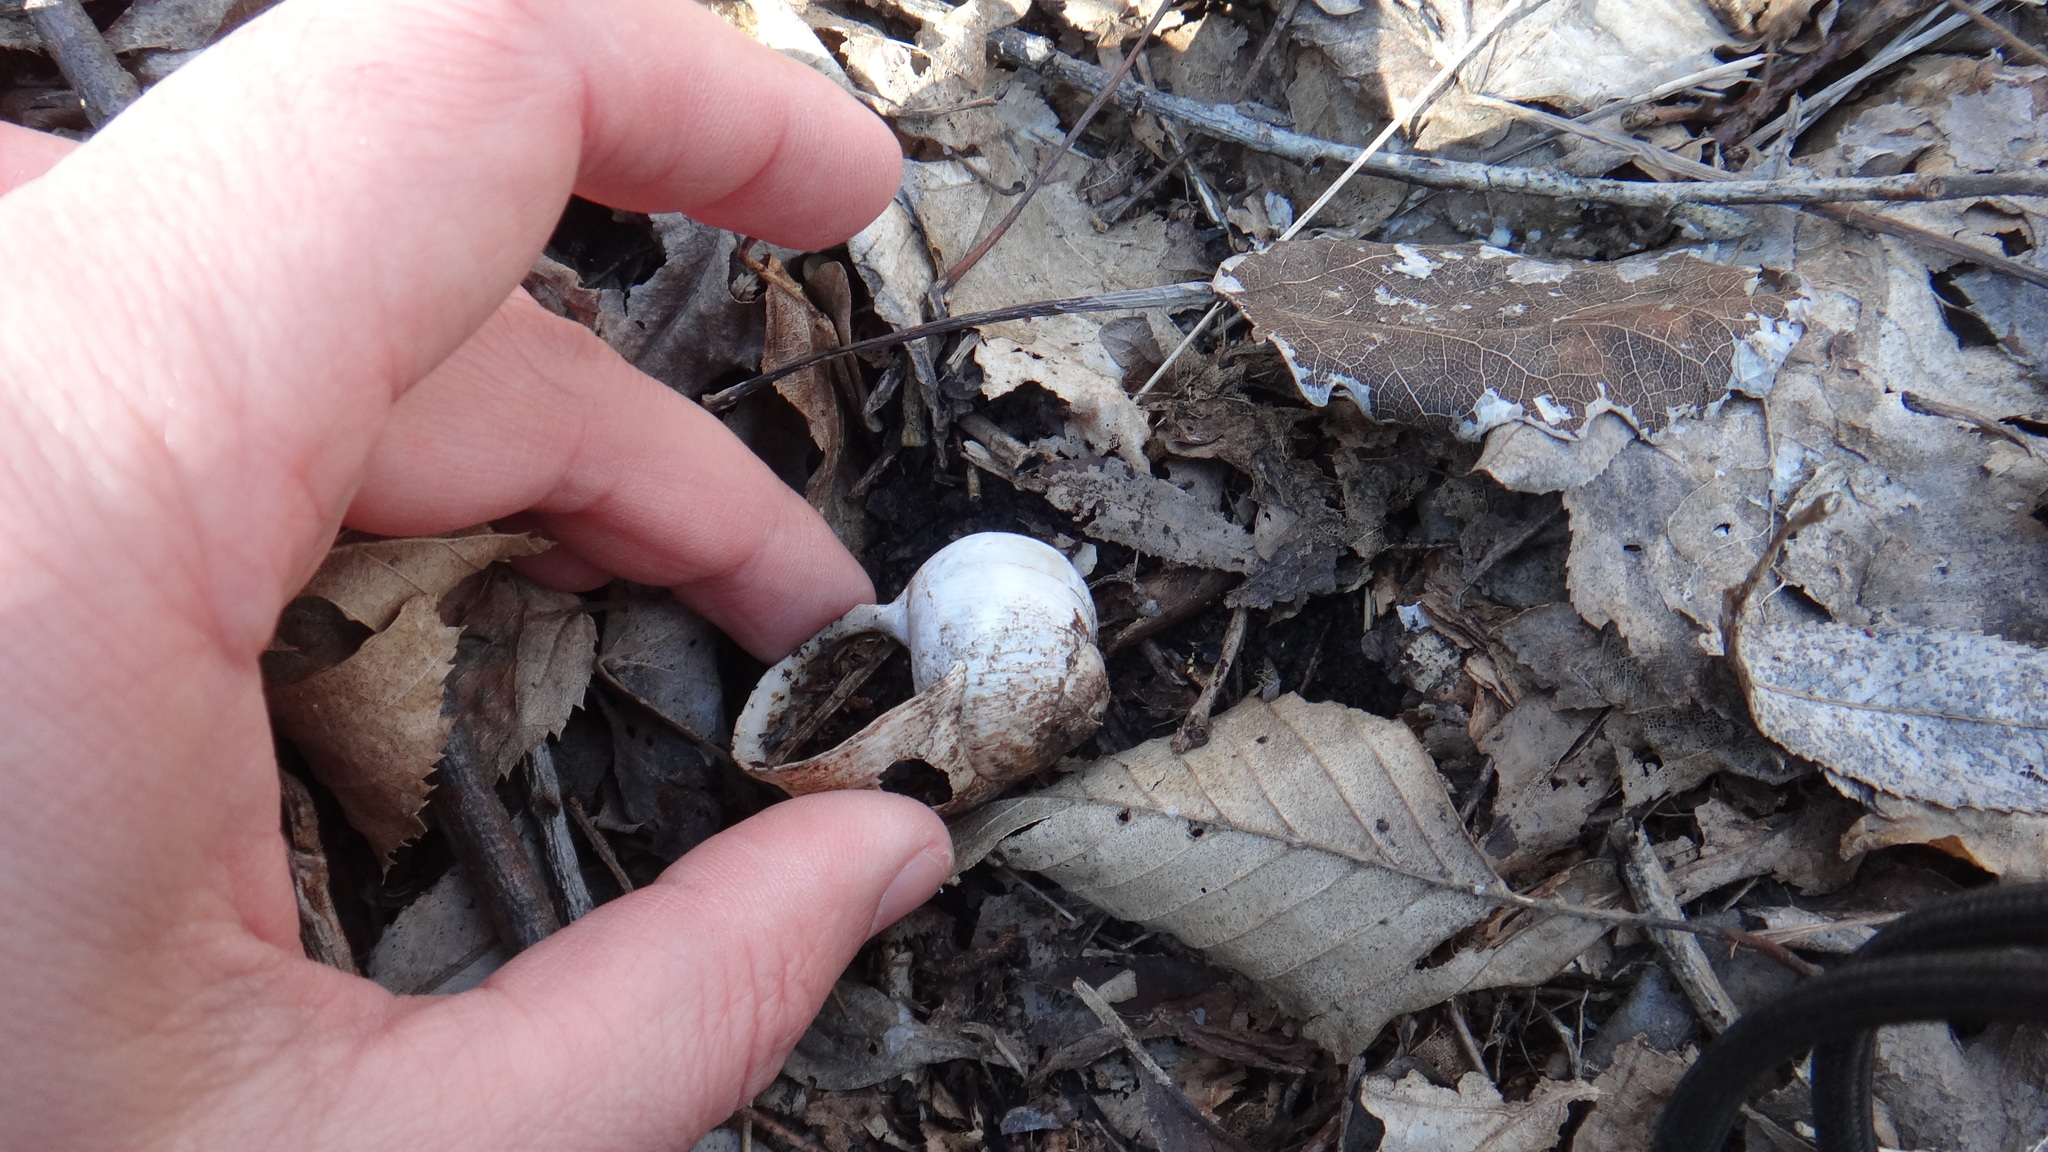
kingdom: Animalia
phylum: Mollusca
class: Gastropoda
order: Stylommatophora
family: Helicidae
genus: Helix
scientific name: Helix pomatia
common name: Roman snail
